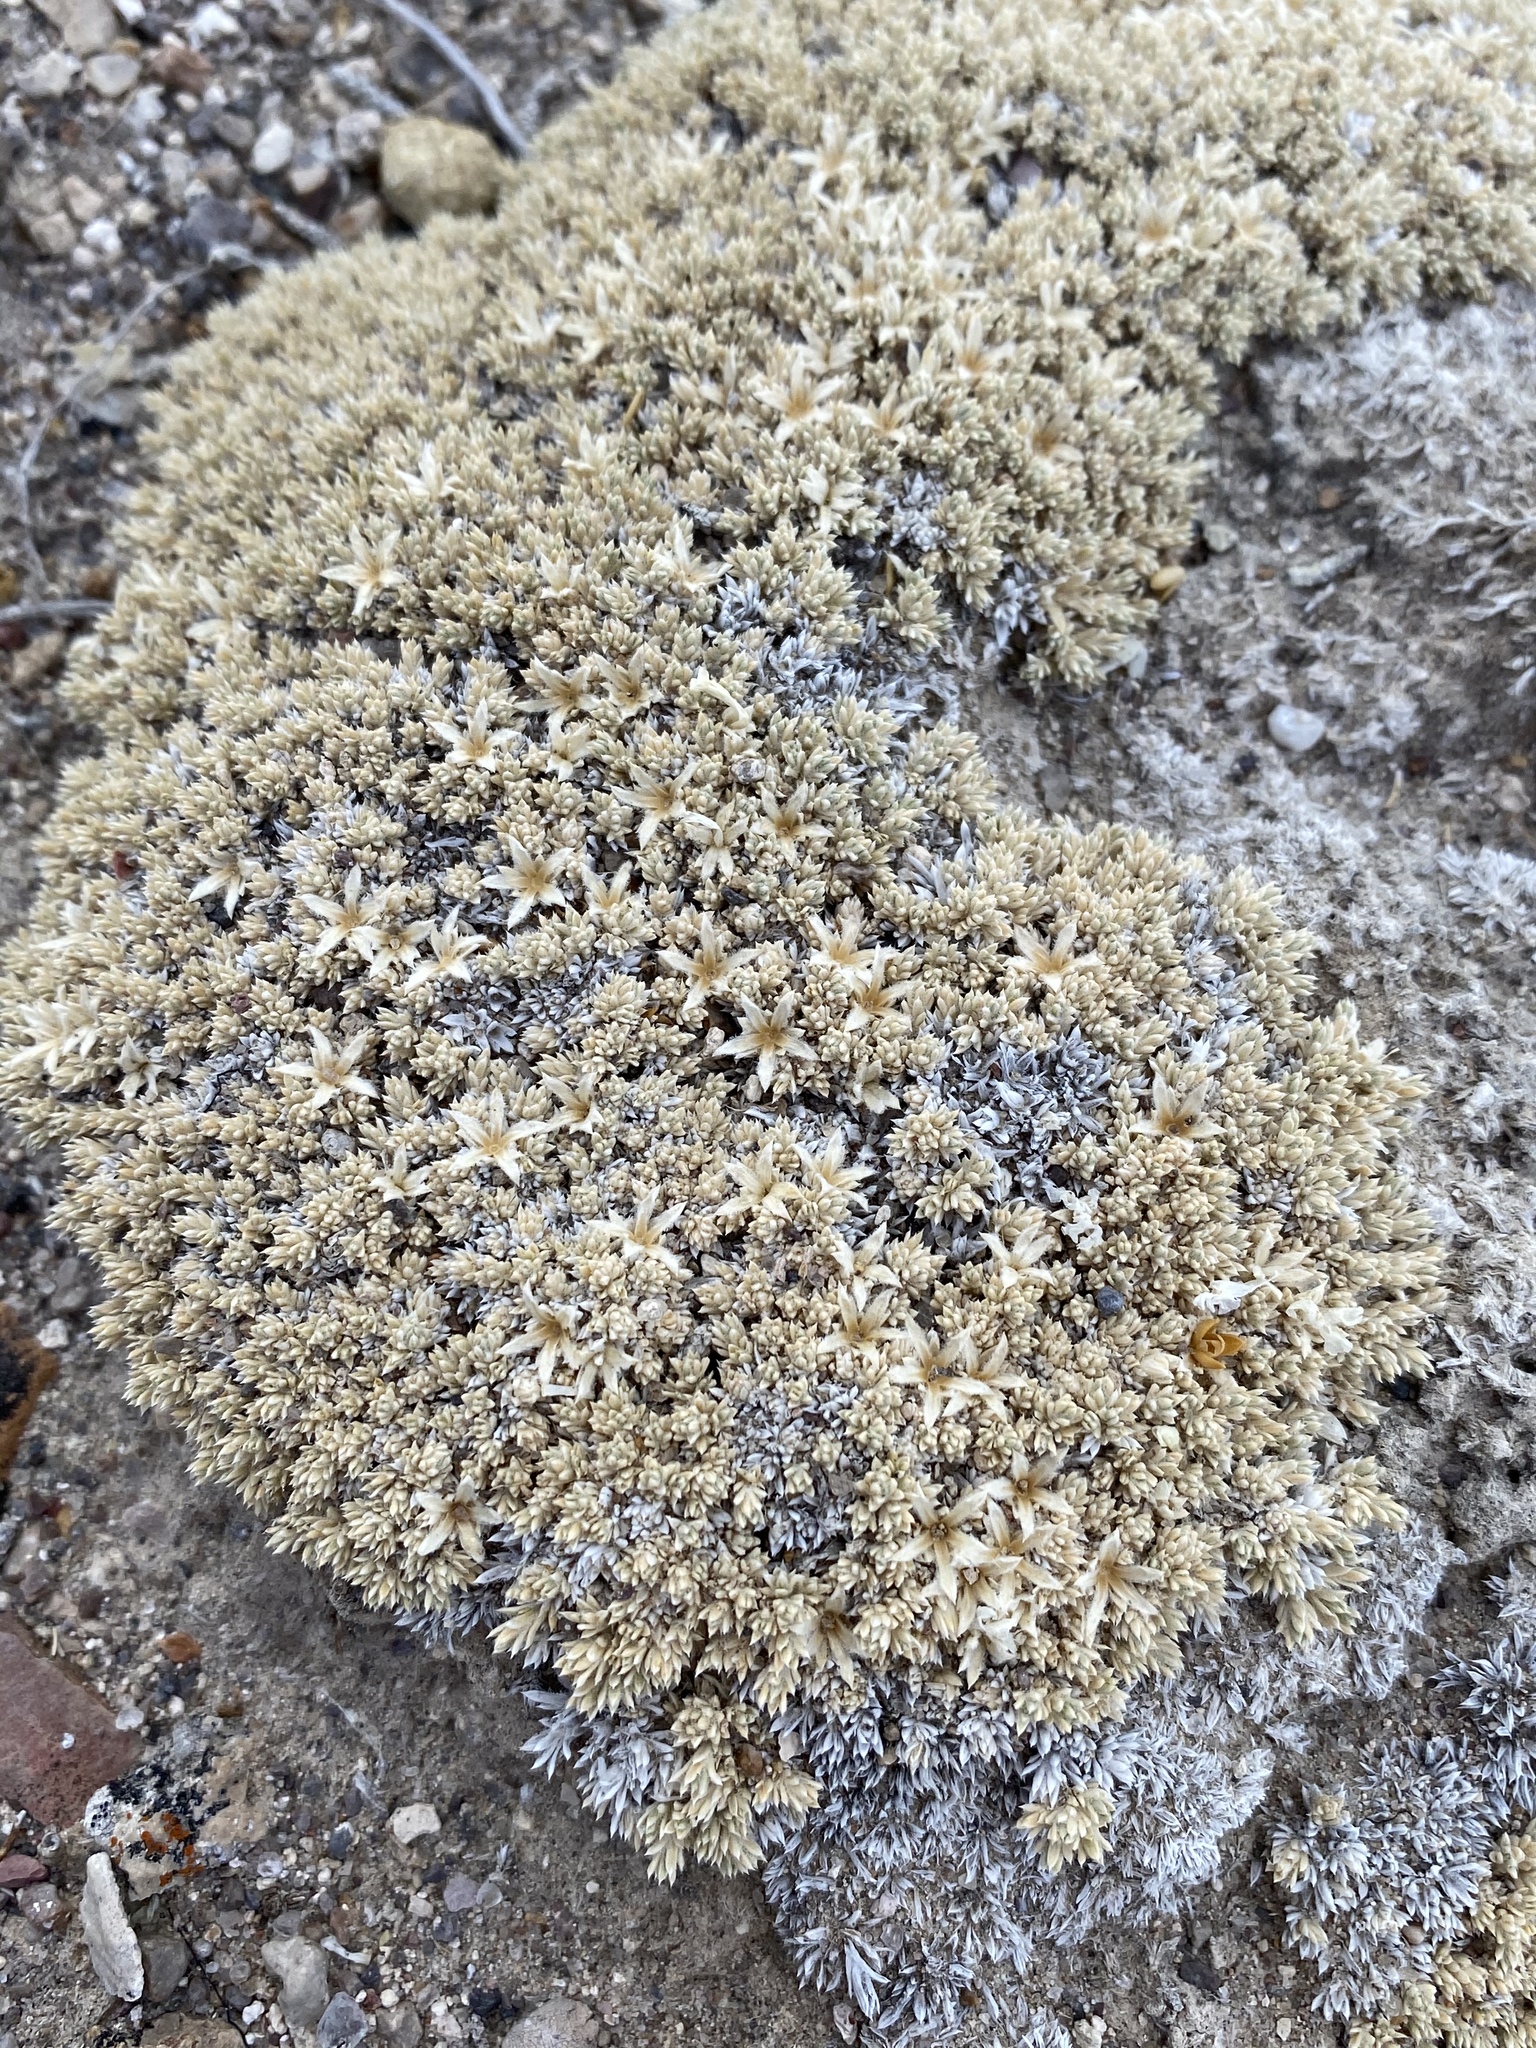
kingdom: Plantae
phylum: Tracheophyta
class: Magnoliopsida
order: Ericales
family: Polemoniaceae
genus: Phlox
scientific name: Phlox griseola
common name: Gray-leaf phlox
